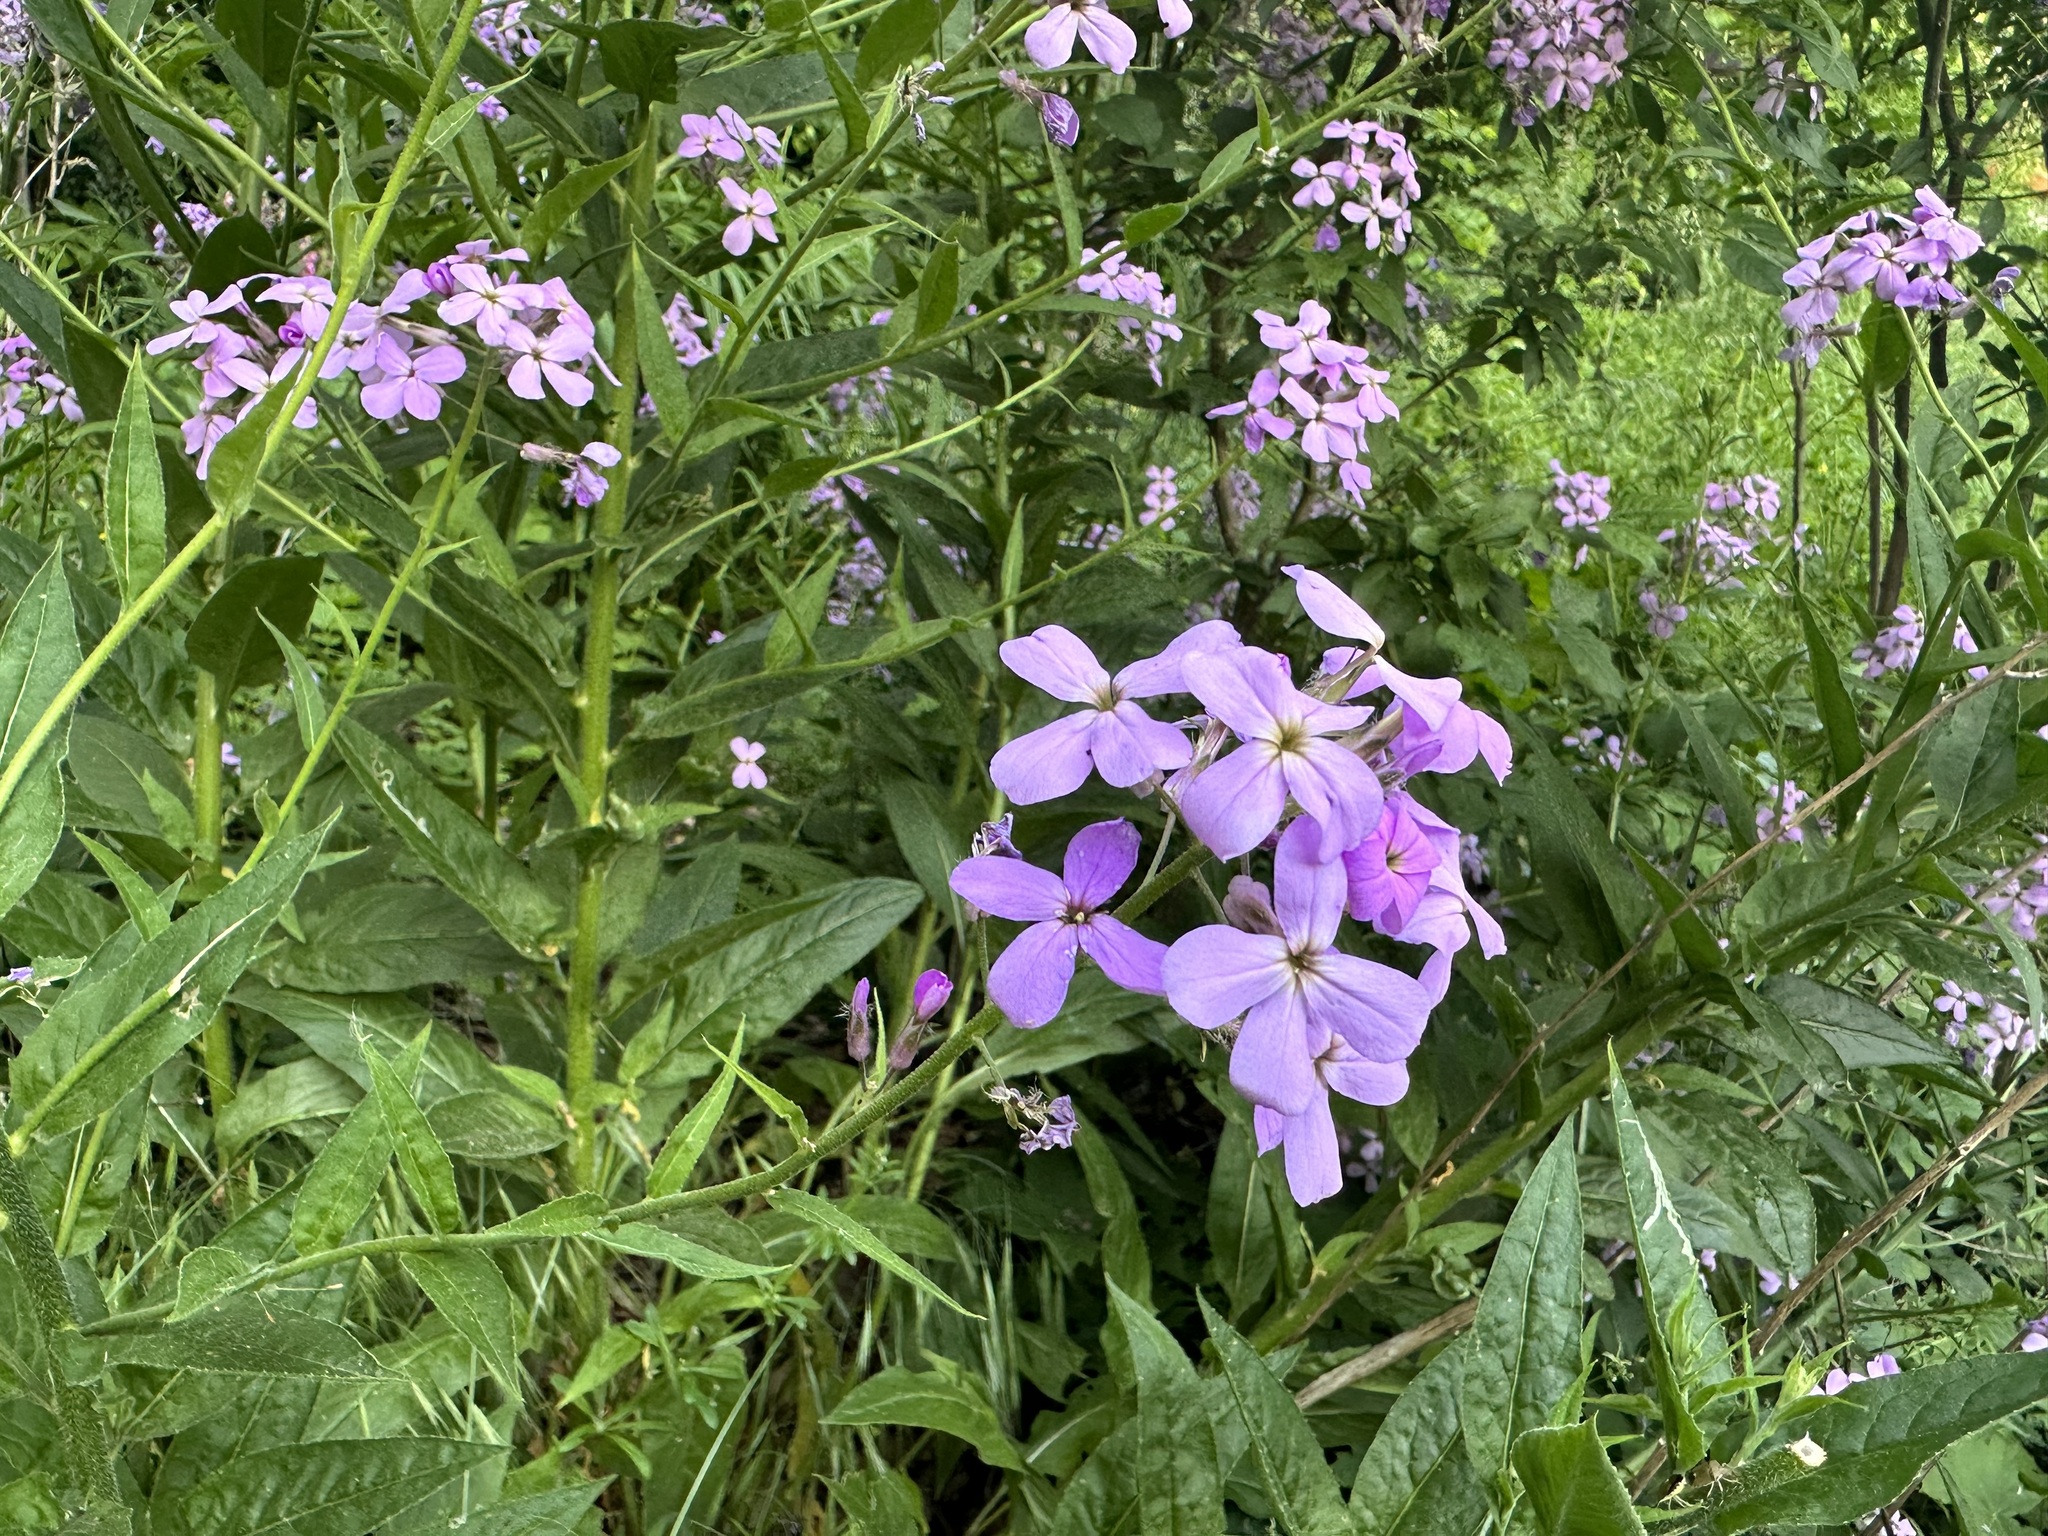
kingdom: Plantae
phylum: Tracheophyta
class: Magnoliopsida
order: Brassicales
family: Brassicaceae
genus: Hesperis
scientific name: Hesperis matronalis
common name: Dame's-violet
